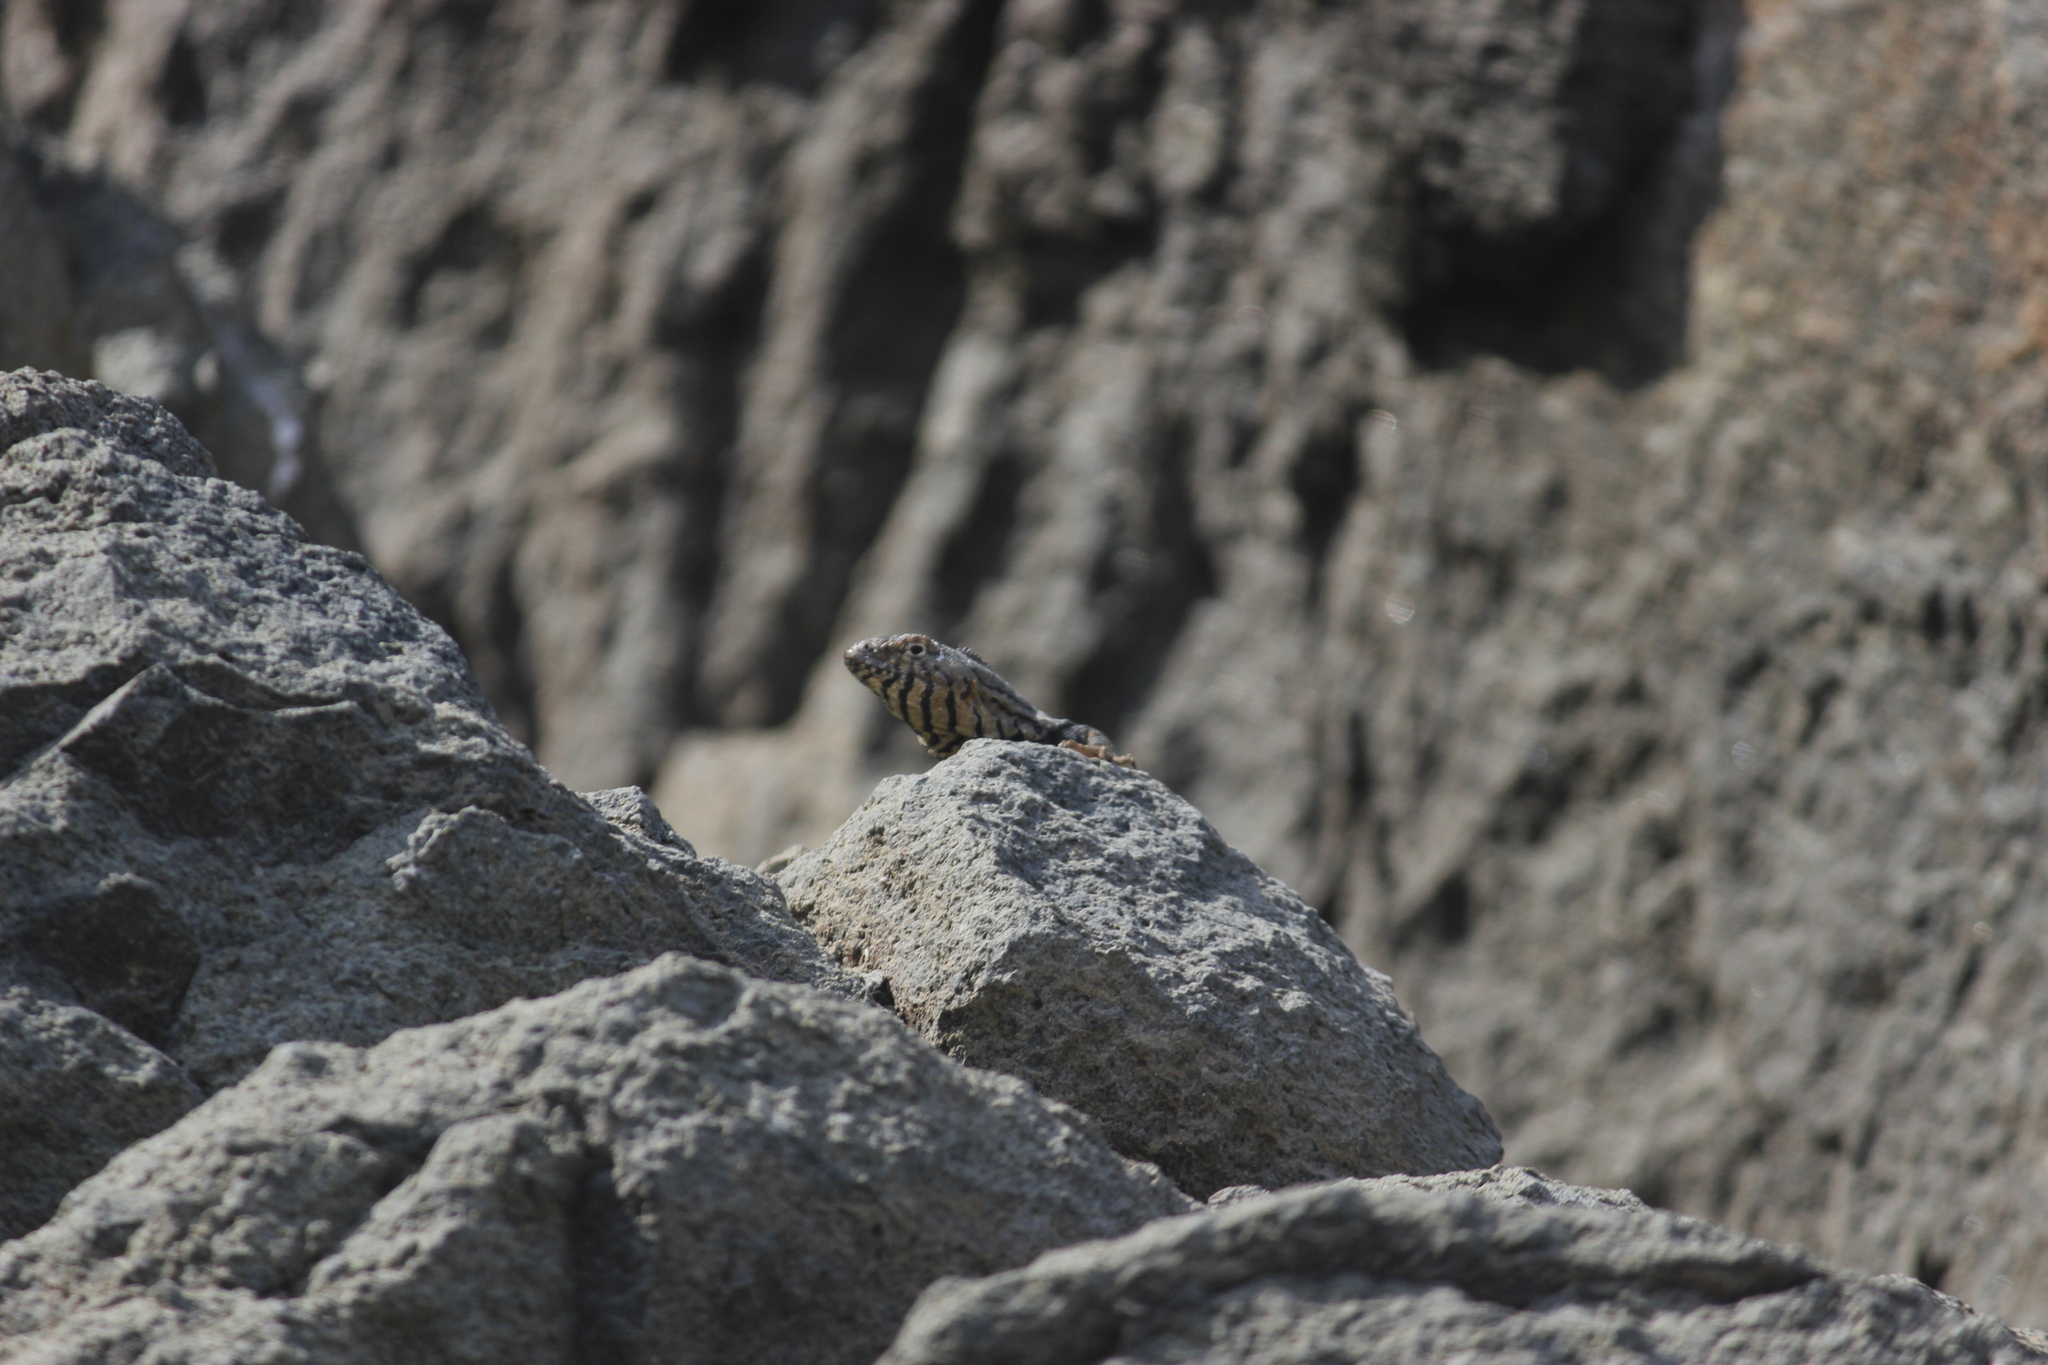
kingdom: Animalia
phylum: Chordata
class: Squamata
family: Tropiduridae
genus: Microlophus
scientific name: Microlophus peruvianus
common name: Peru pacific iguana
